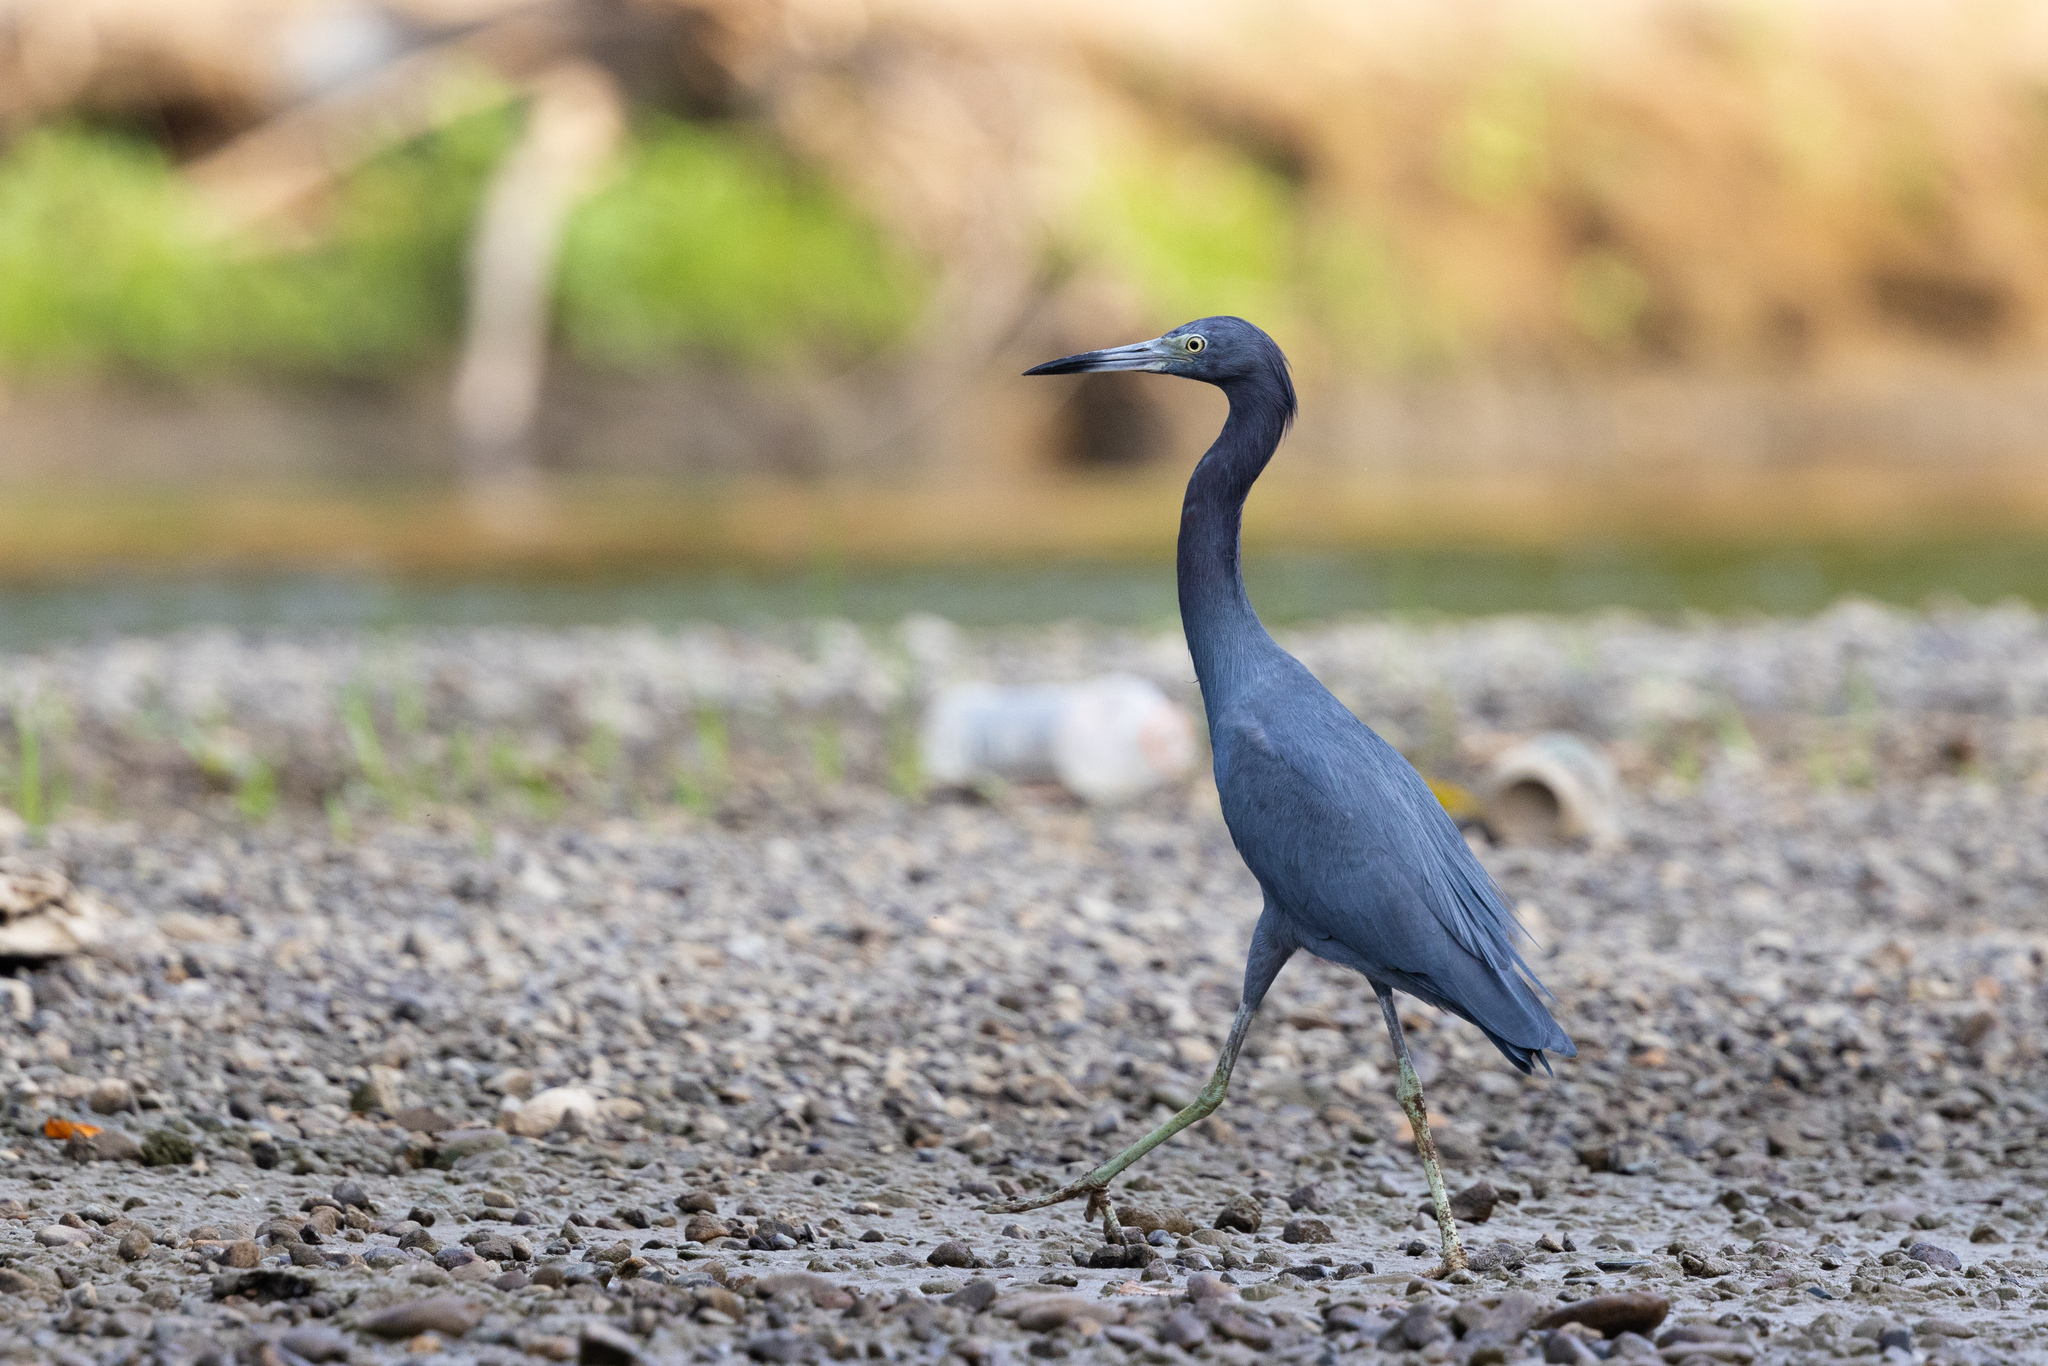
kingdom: Animalia
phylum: Chordata
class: Aves
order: Pelecaniformes
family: Ardeidae
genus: Egretta
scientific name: Egretta caerulea
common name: Little blue heron
